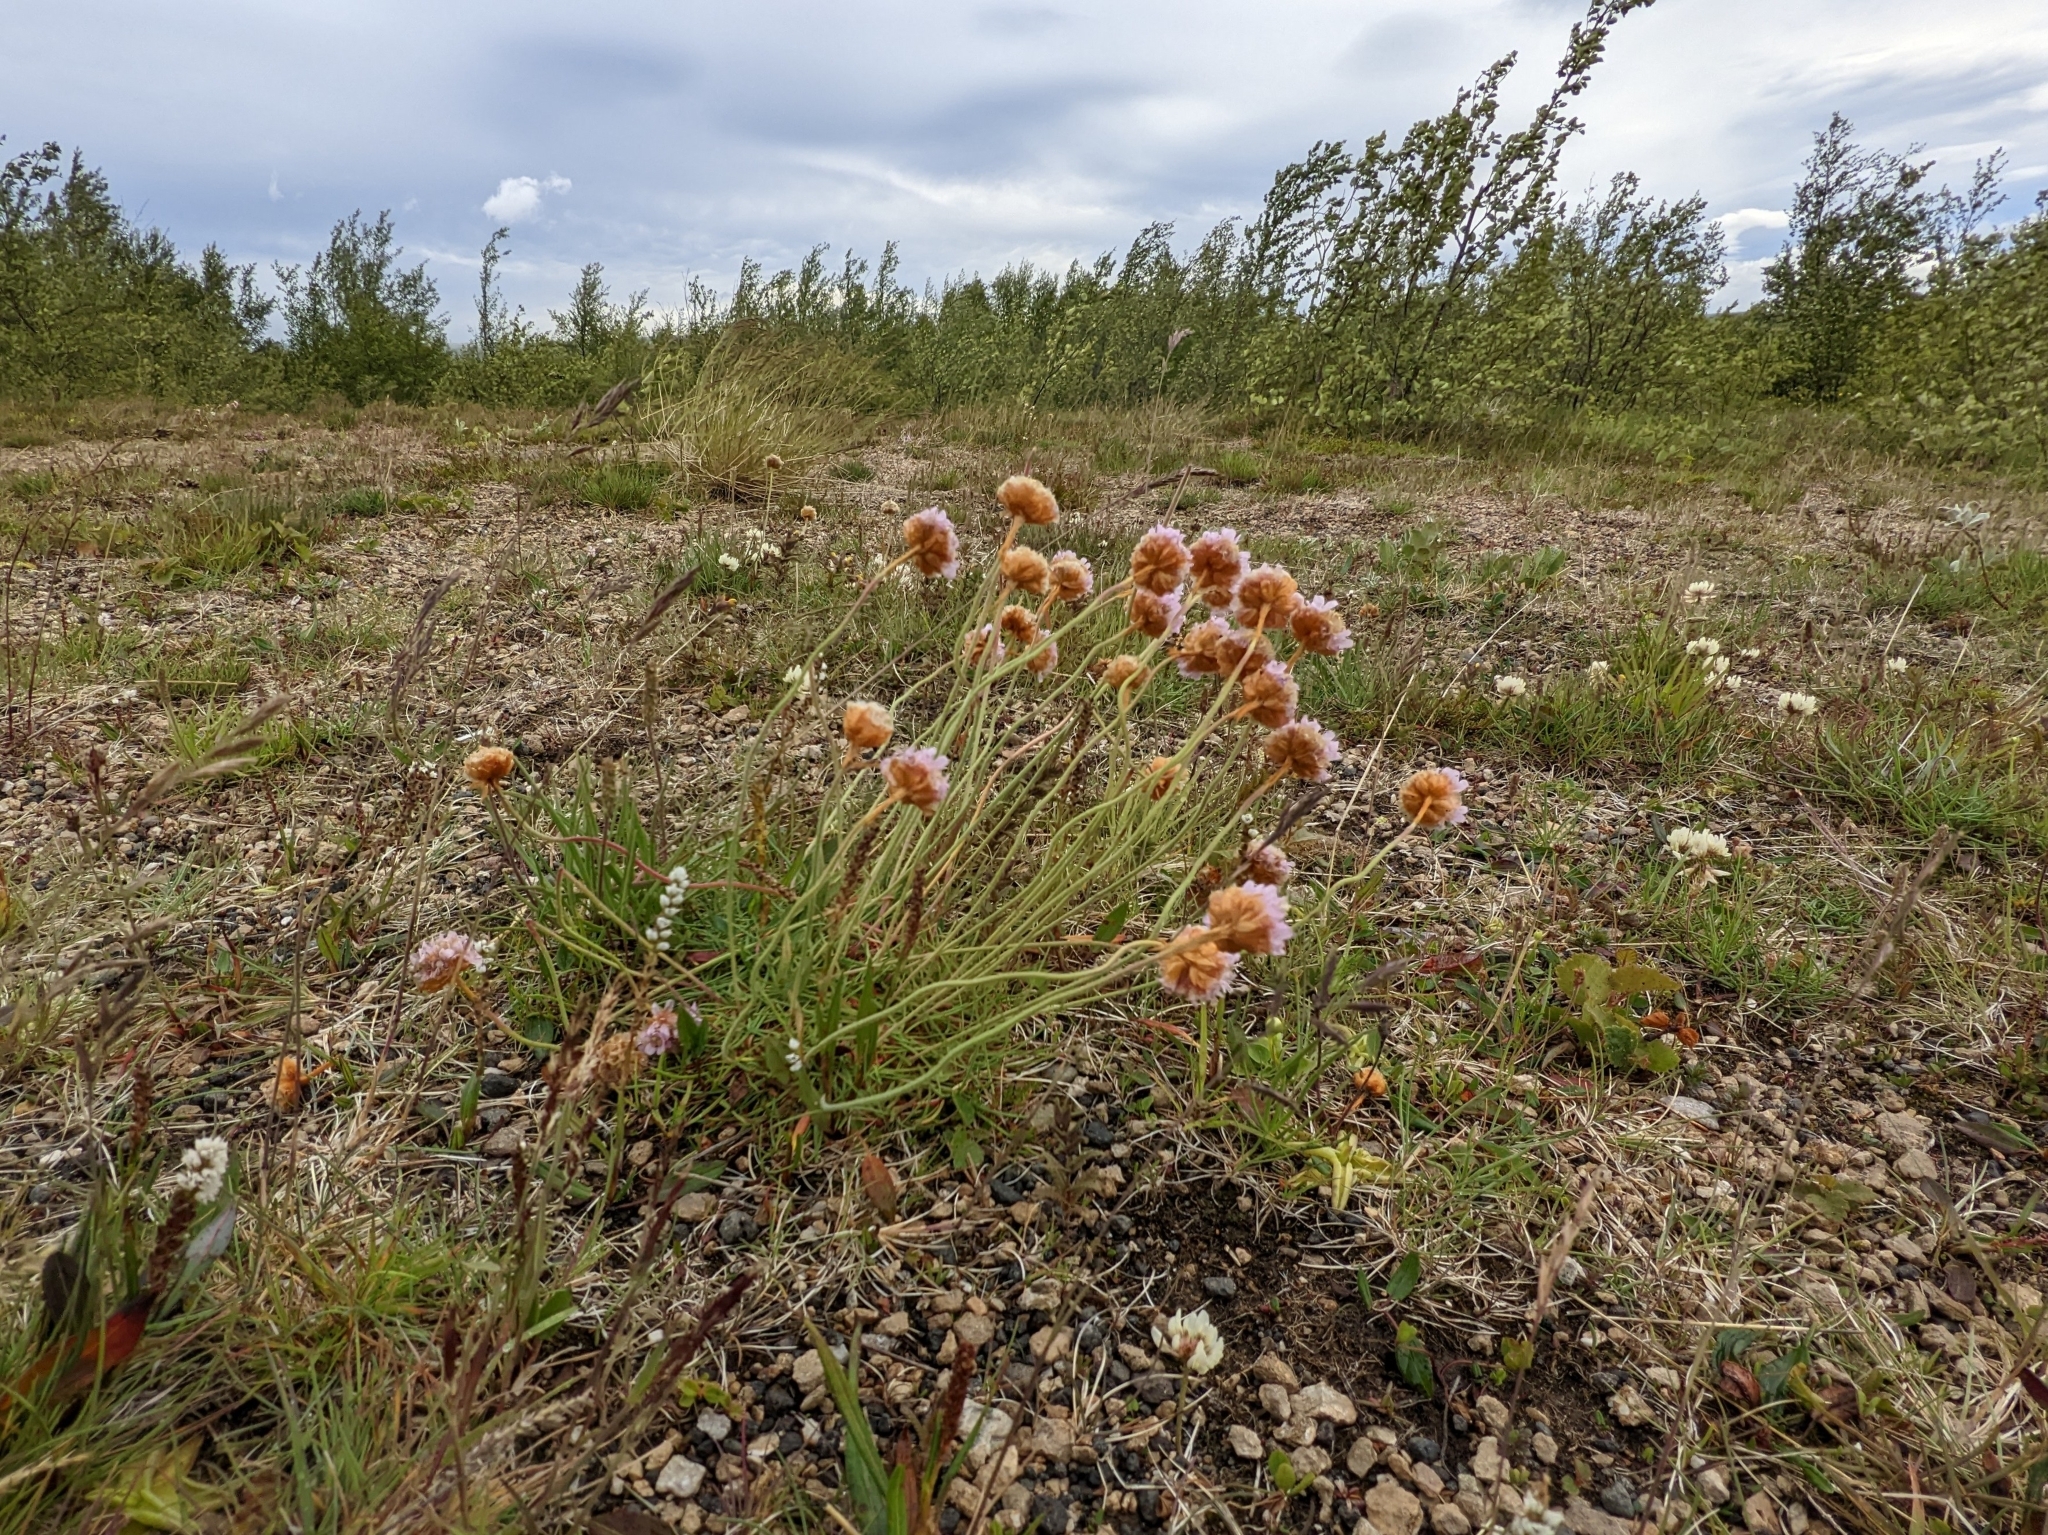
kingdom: Plantae
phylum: Tracheophyta
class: Magnoliopsida
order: Caryophyllales
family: Plumbaginaceae
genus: Armeria
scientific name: Armeria maritima
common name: Thrift
